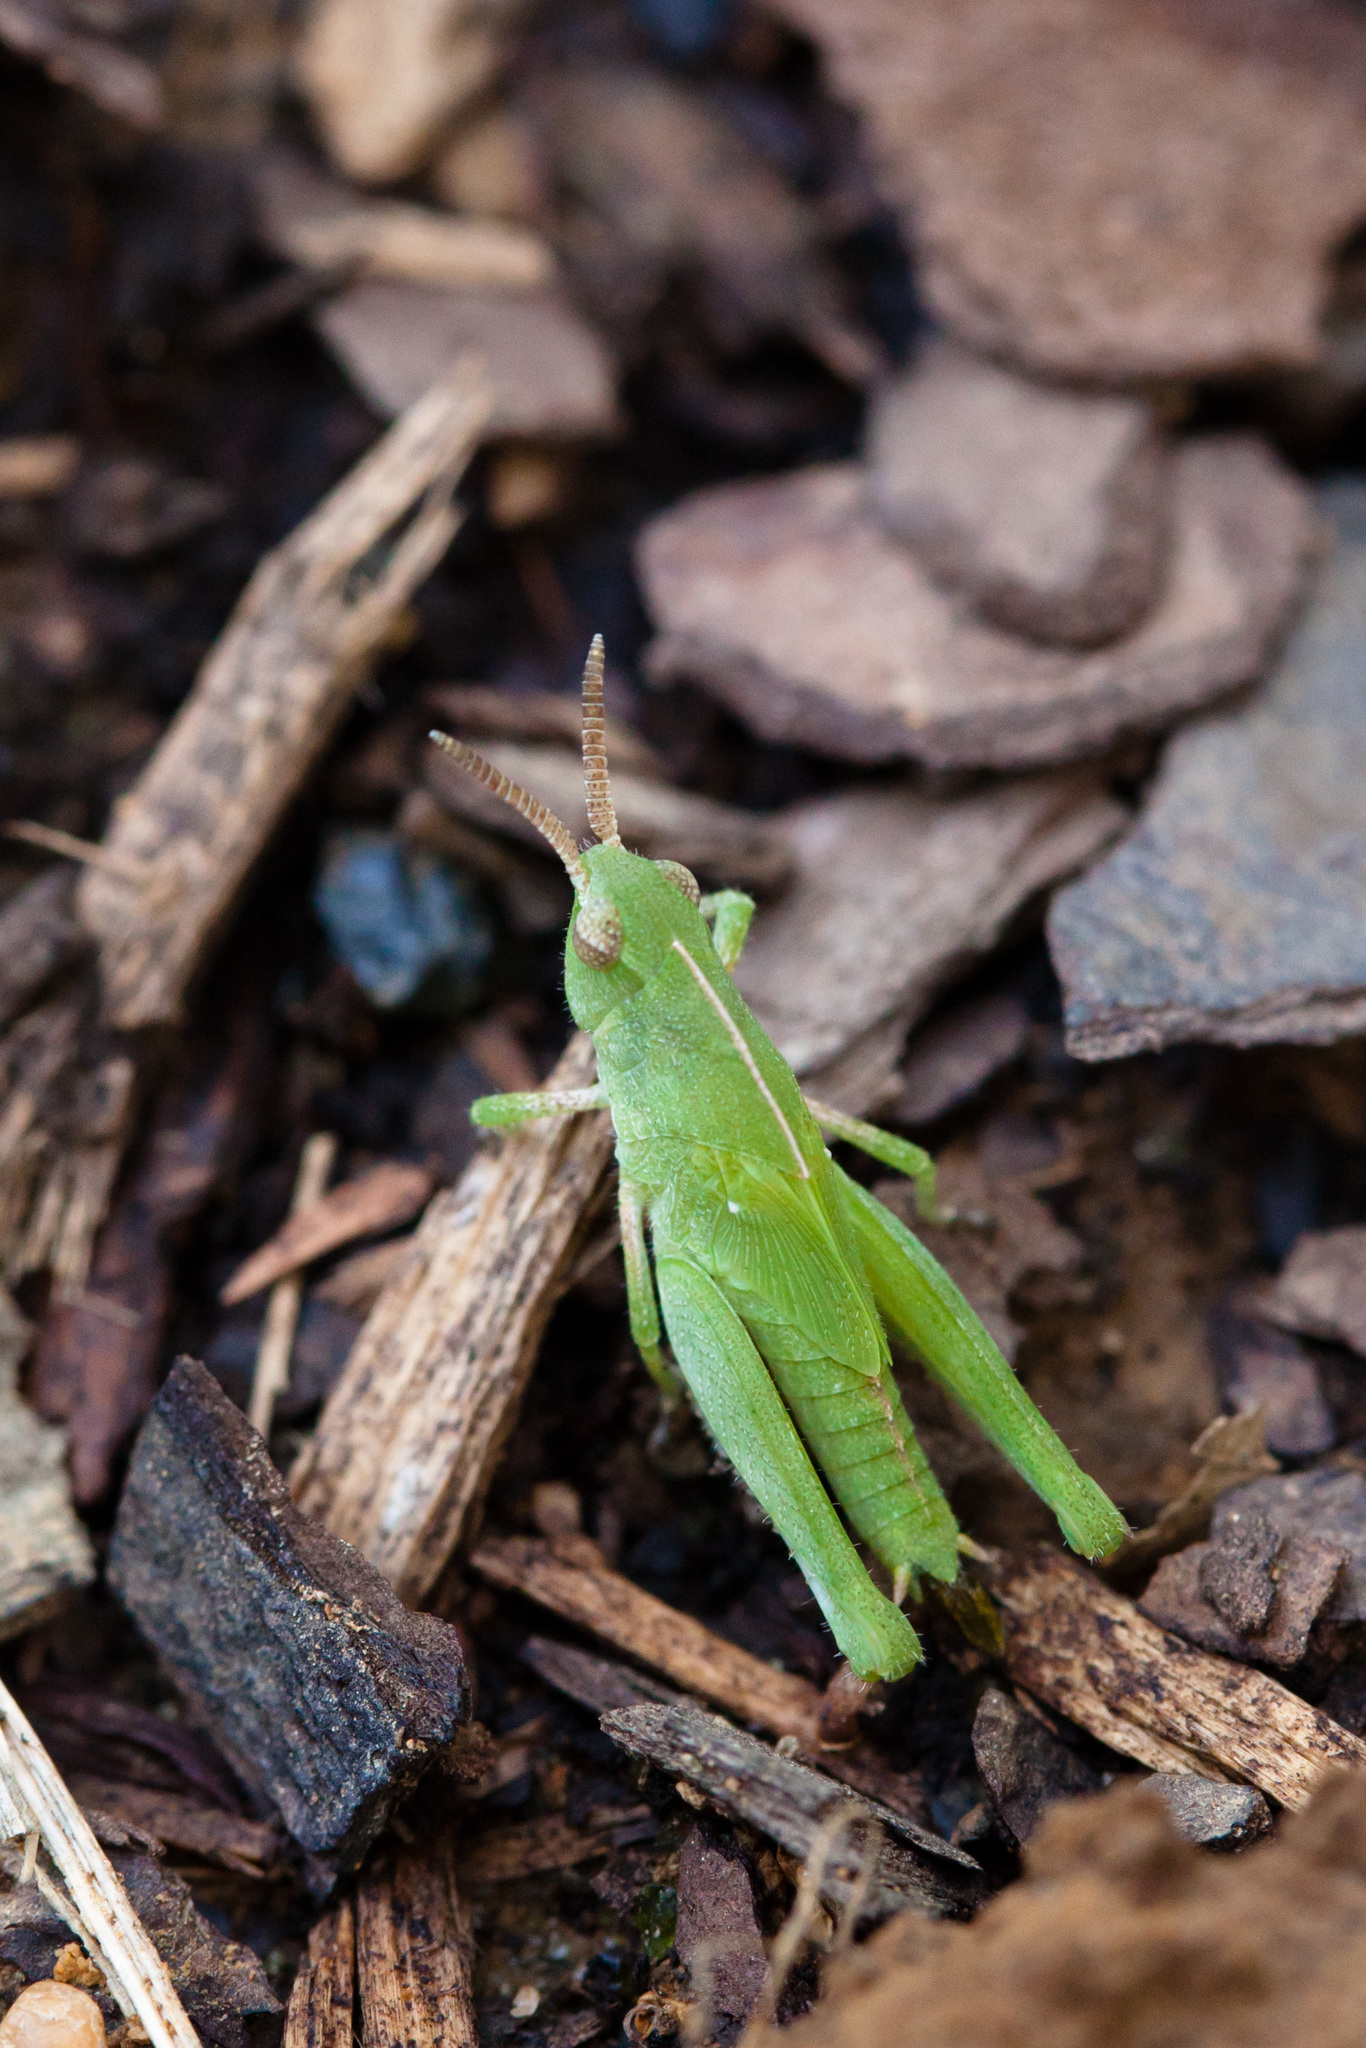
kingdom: Animalia
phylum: Arthropoda
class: Insecta
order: Orthoptera
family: Acrididae
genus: Chortophaga
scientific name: Chortophaga viridifasciata
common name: Green-striped grasshopper
